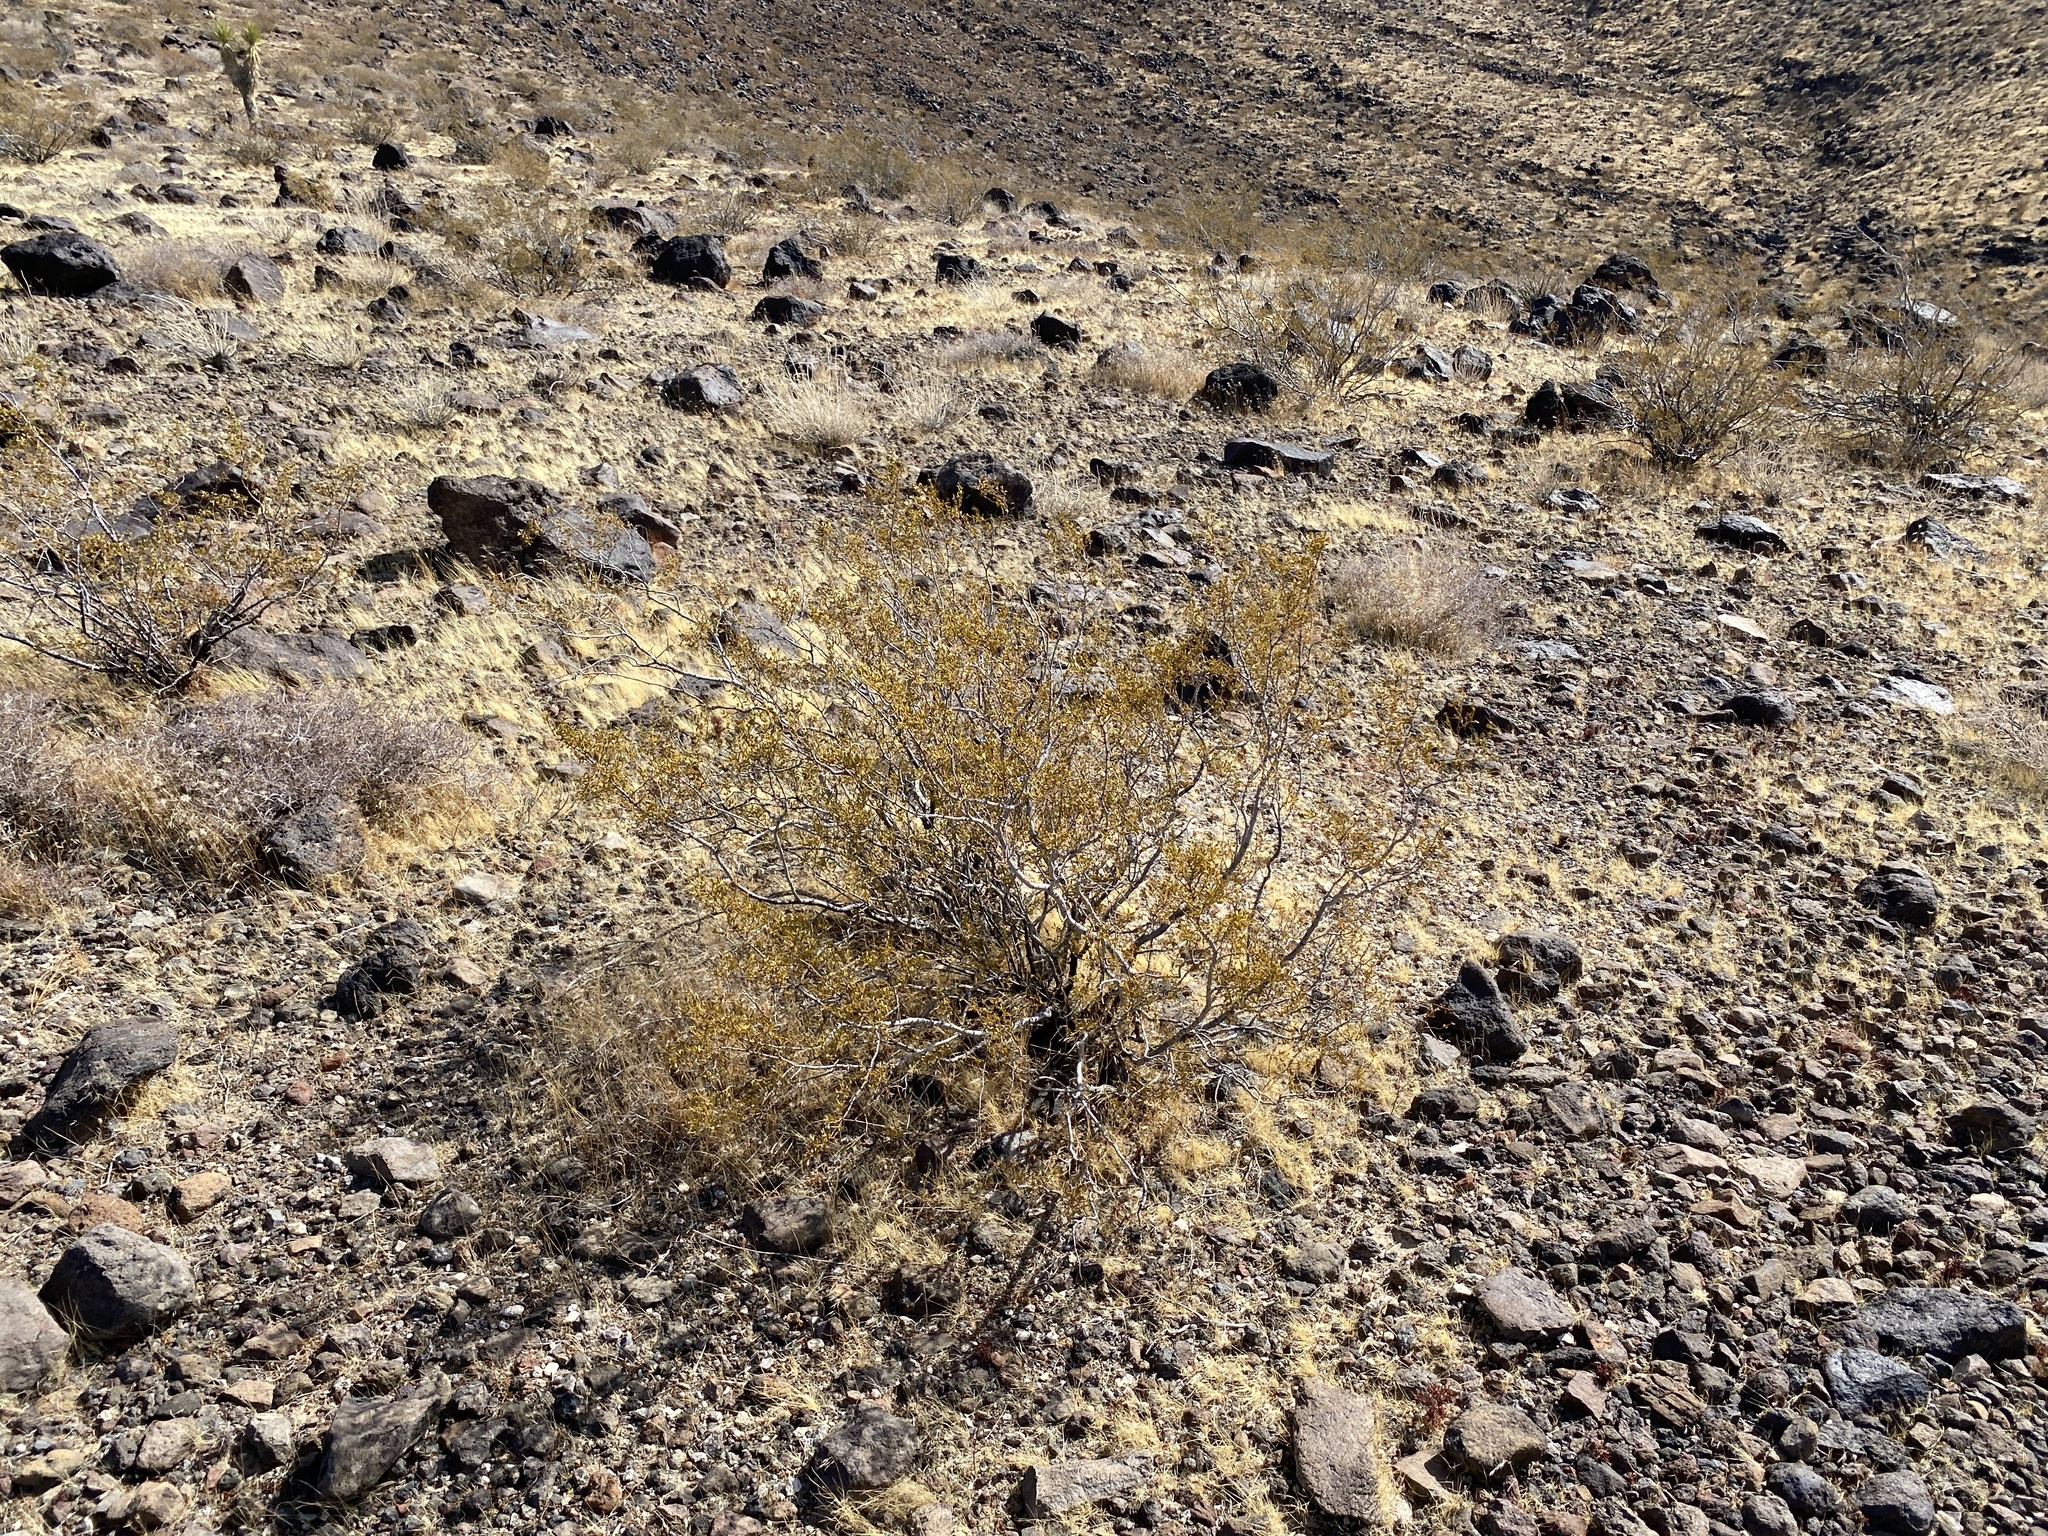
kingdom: Plantae
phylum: Tracheophyta
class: Magnoliopsida
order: Zygophyllales
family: Zygophyllaceae
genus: Larrea
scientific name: Larrea tridentata
